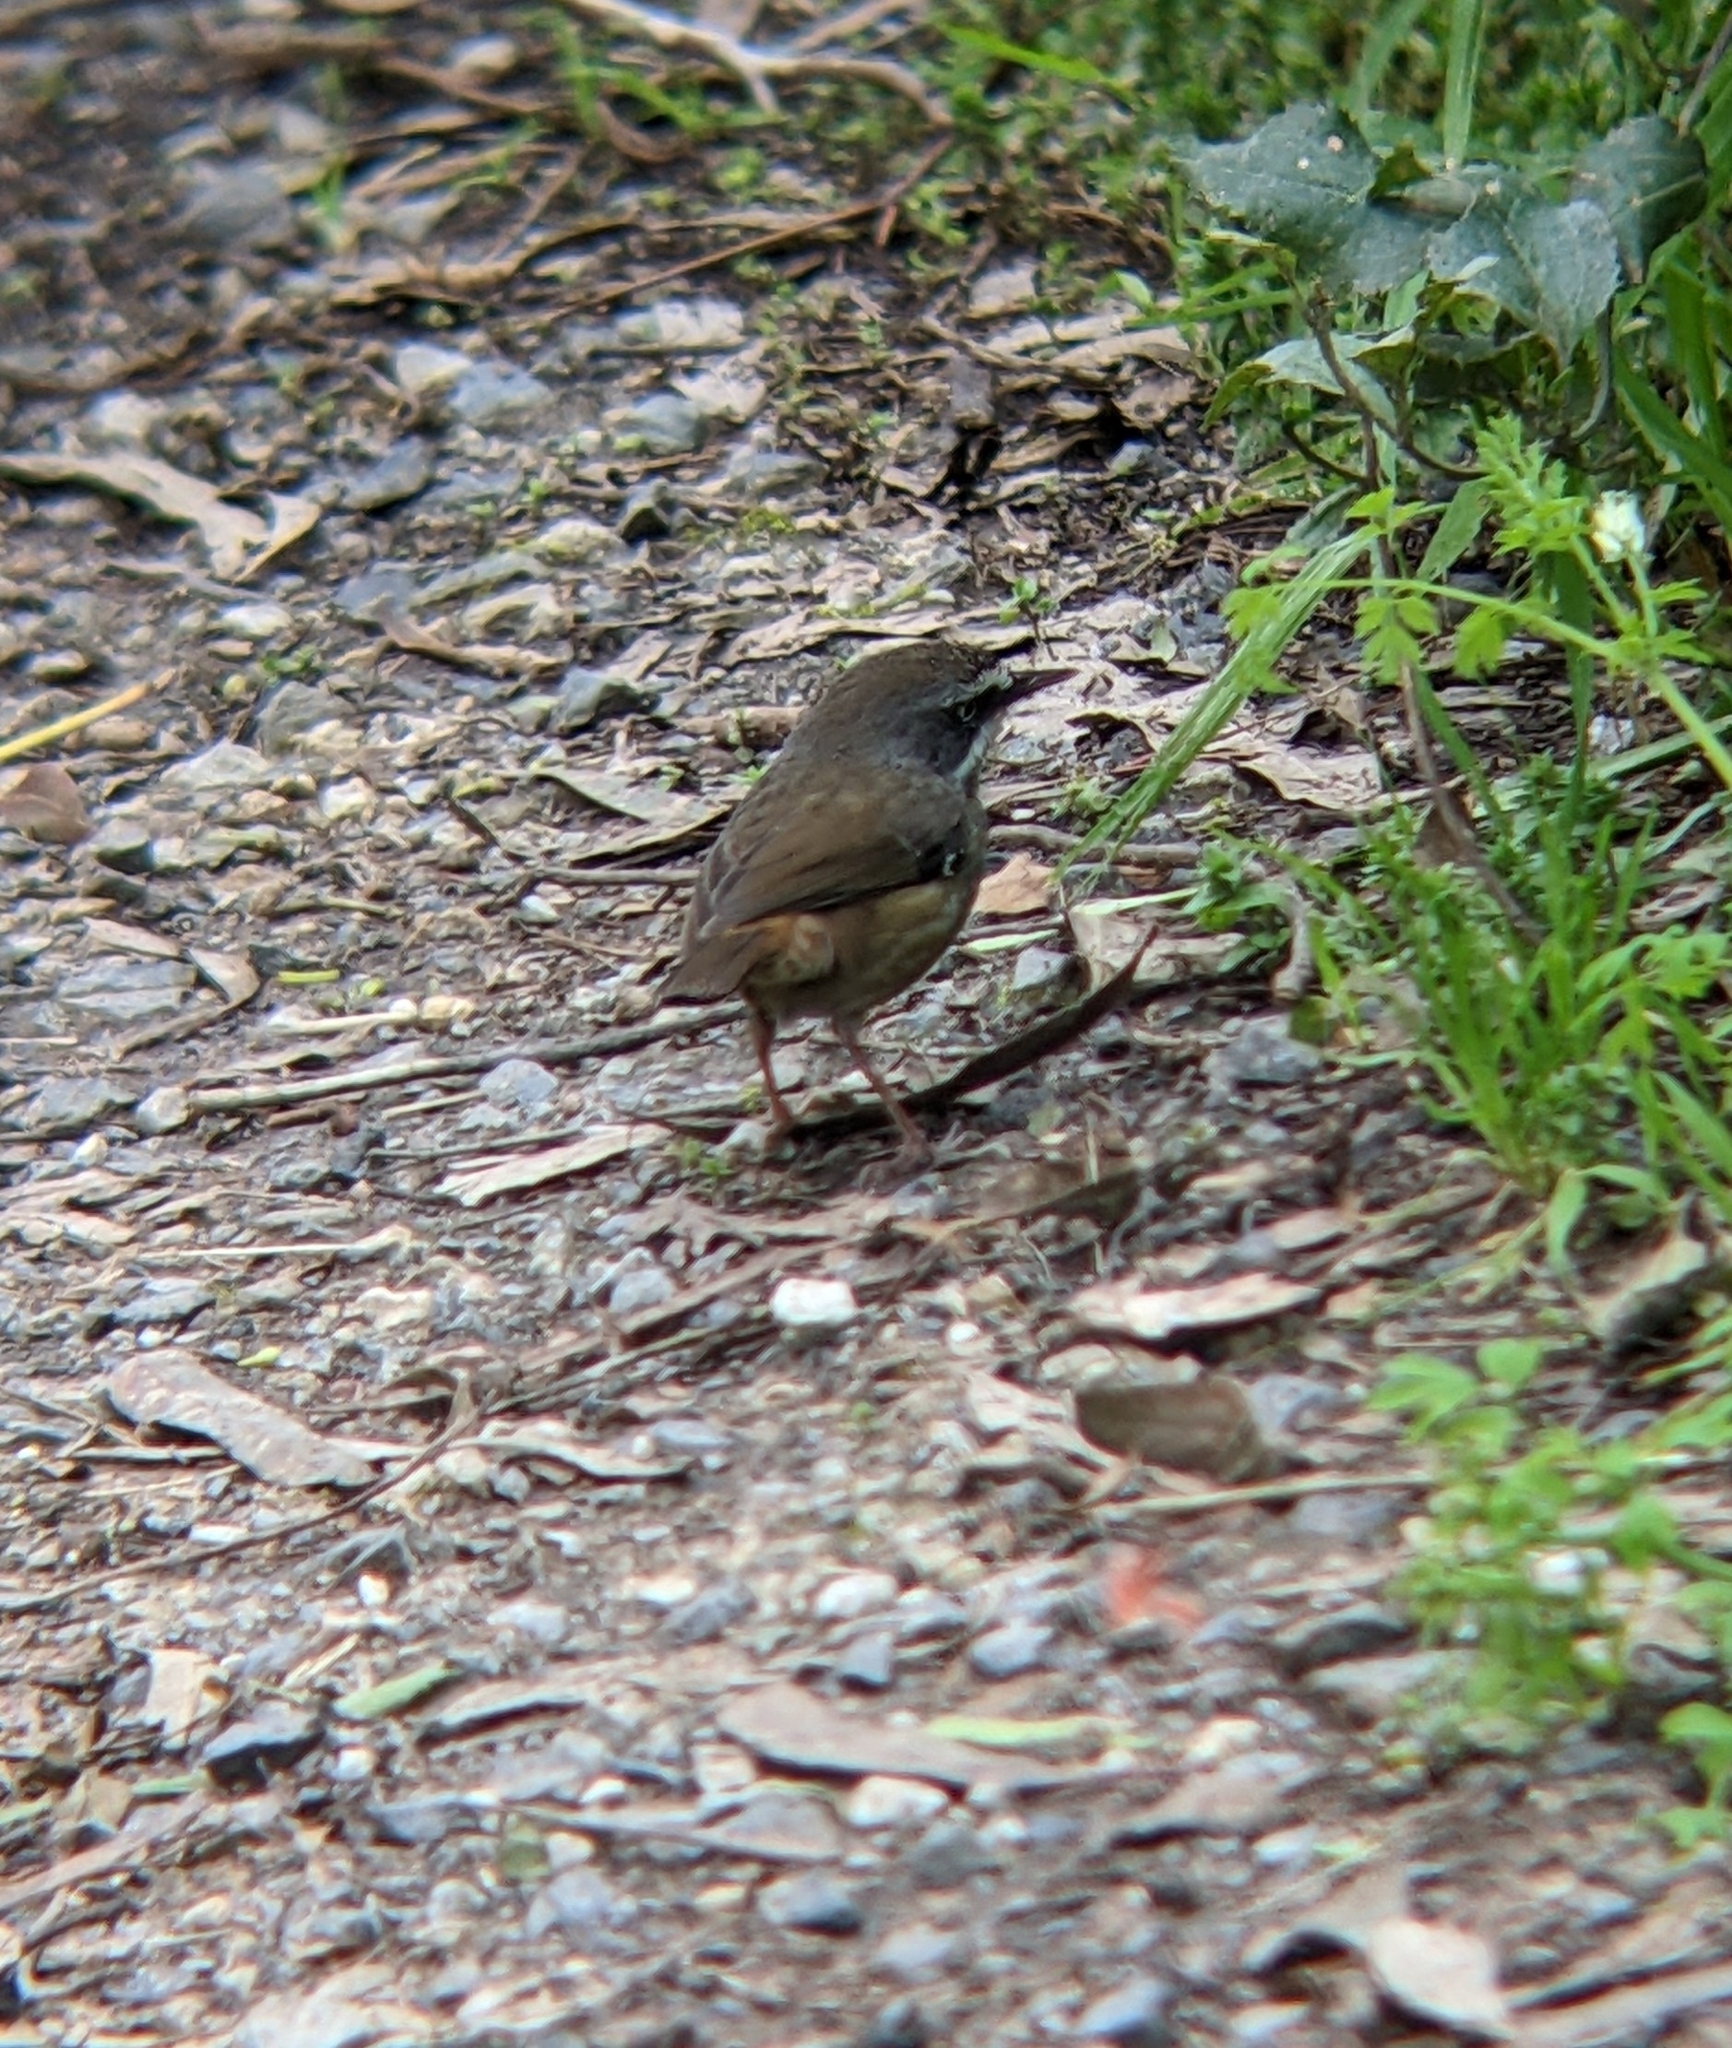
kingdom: Animalia
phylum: Chordata
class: Aves
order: Passeriformes
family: Acanthizidae
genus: Sericornis
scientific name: Sericornis frontalis
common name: White-browed scrubwren
